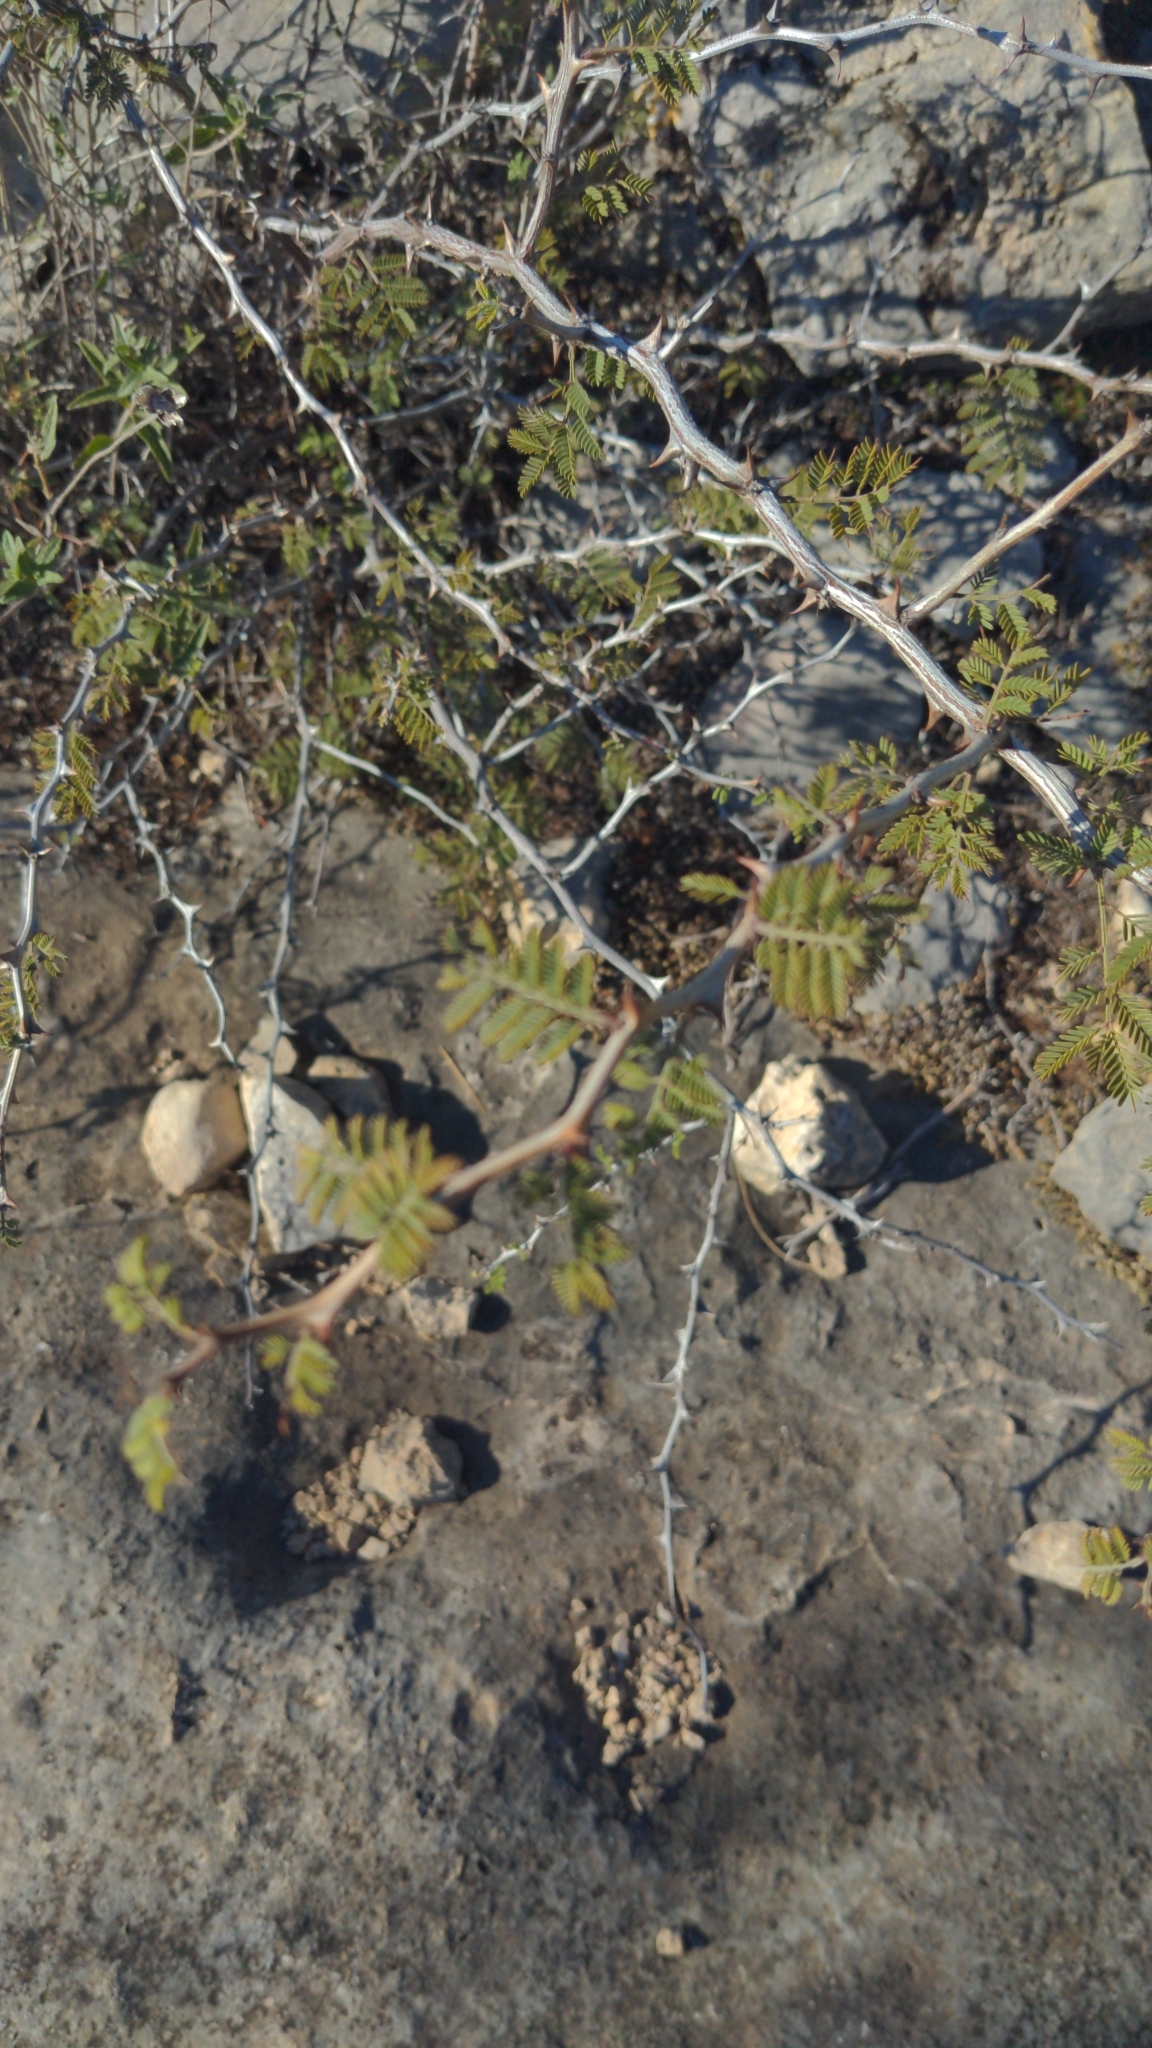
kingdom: Plantae
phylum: Tracheophyta
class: Magnoliopsida
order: Fabales
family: Fabaceae
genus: Mimosa
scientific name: Mimosa aculeaticarpa
